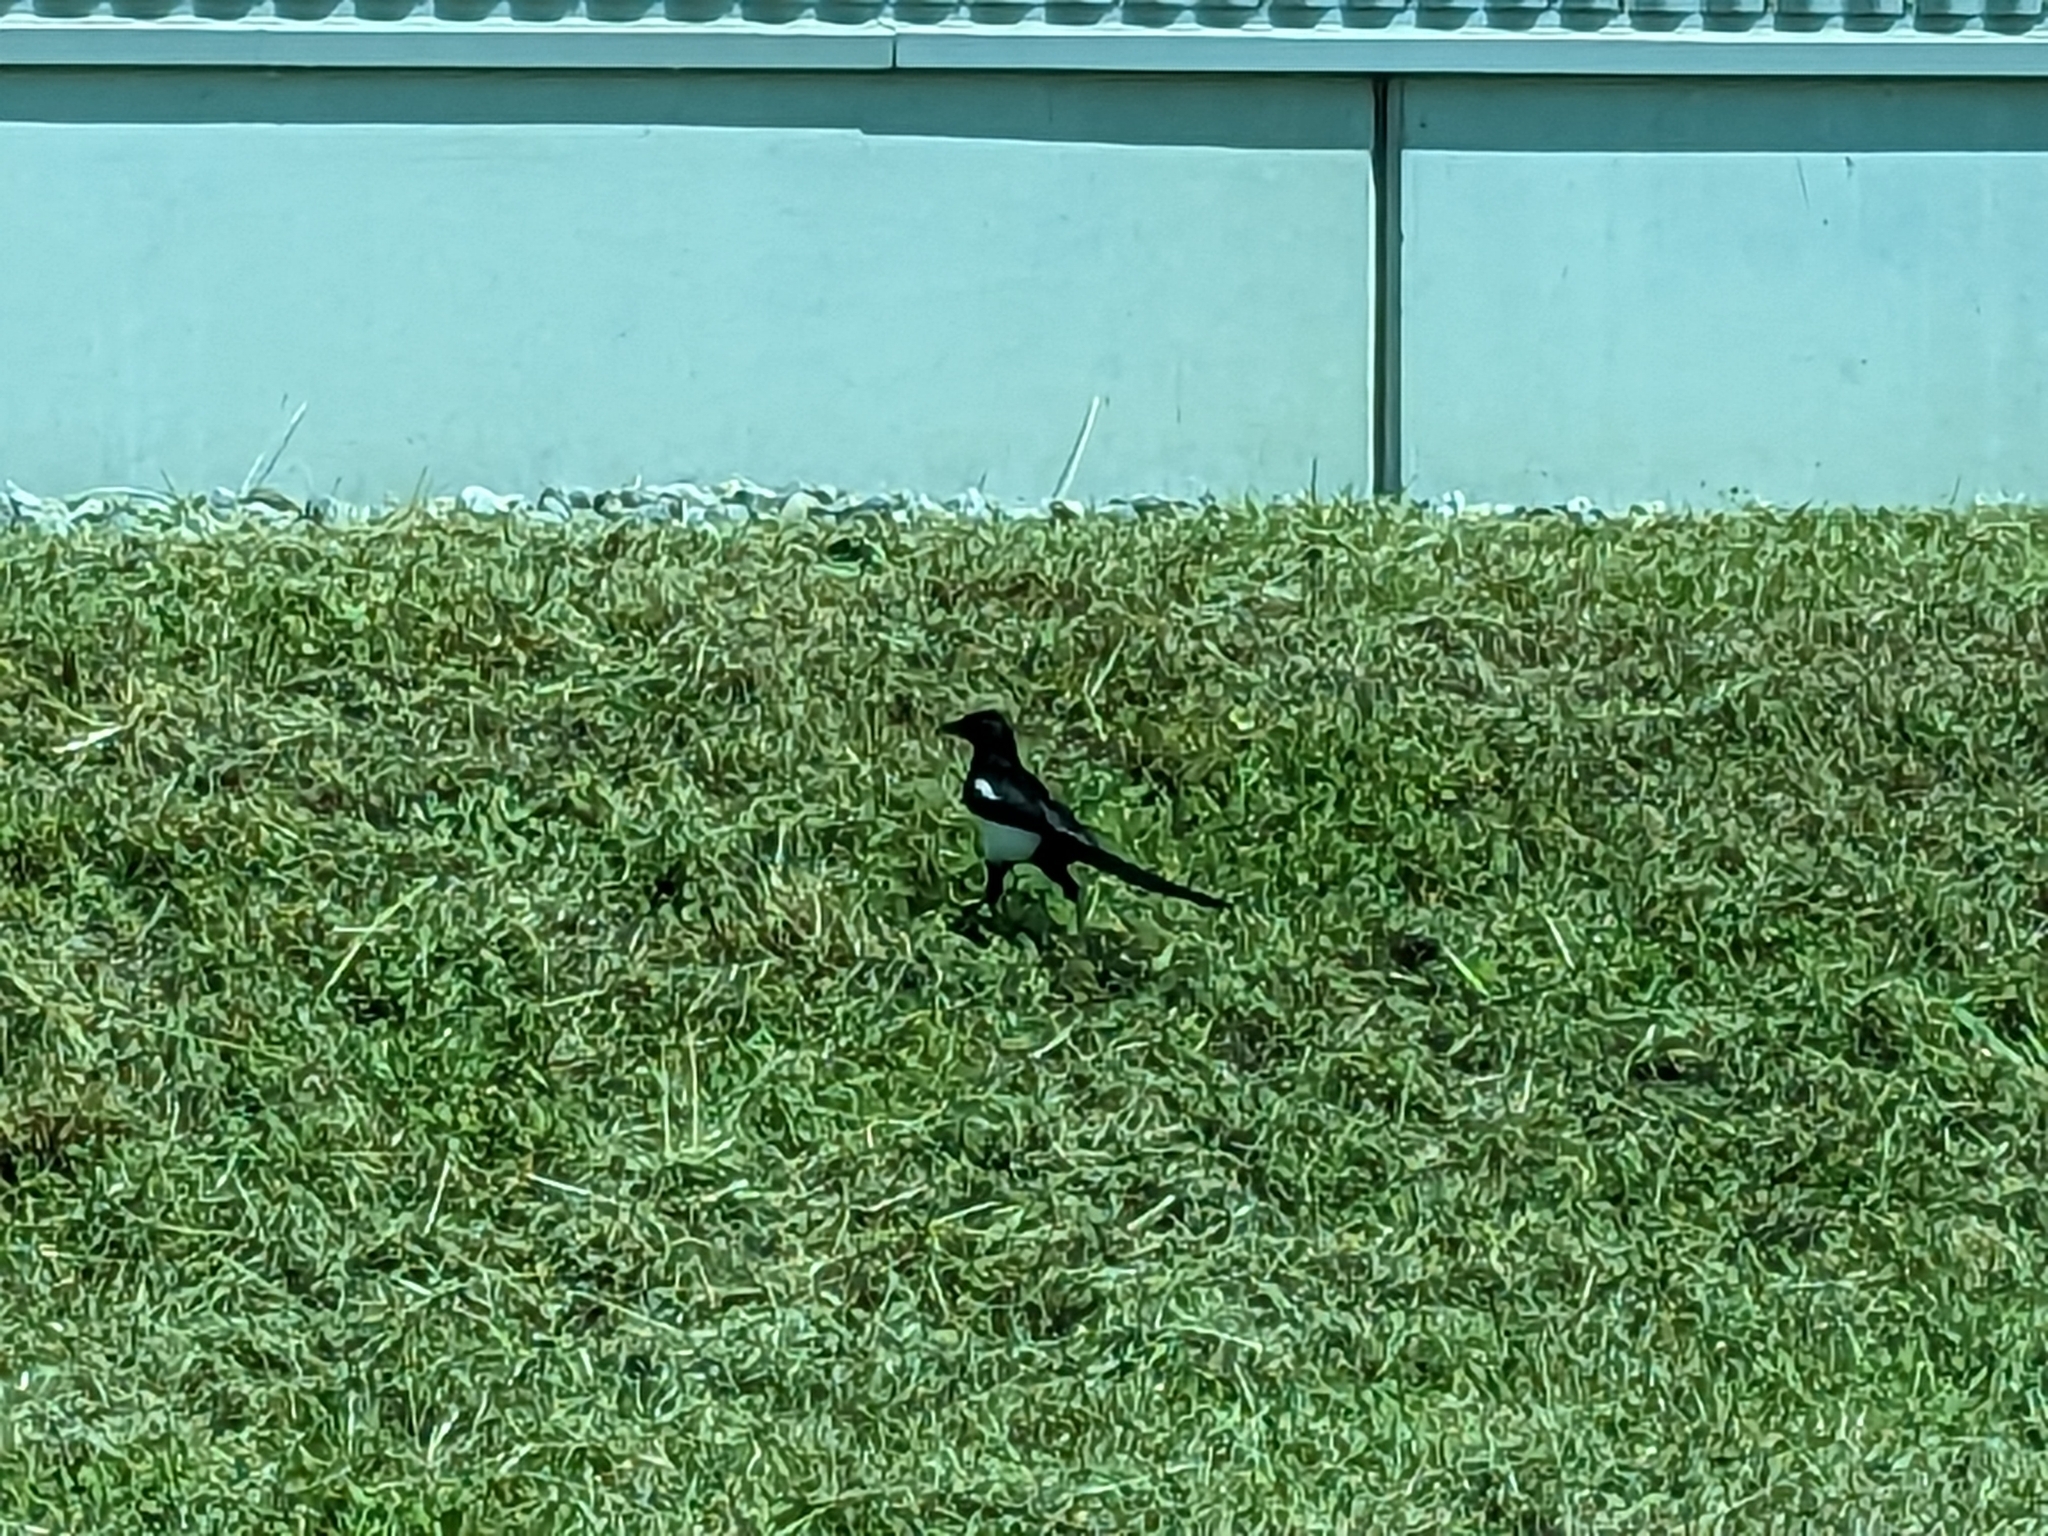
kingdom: Animalia
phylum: Chordata
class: Aves
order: Passeriformes
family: Corvidae
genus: Pica
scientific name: Pica pica
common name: Eurasian magpie
